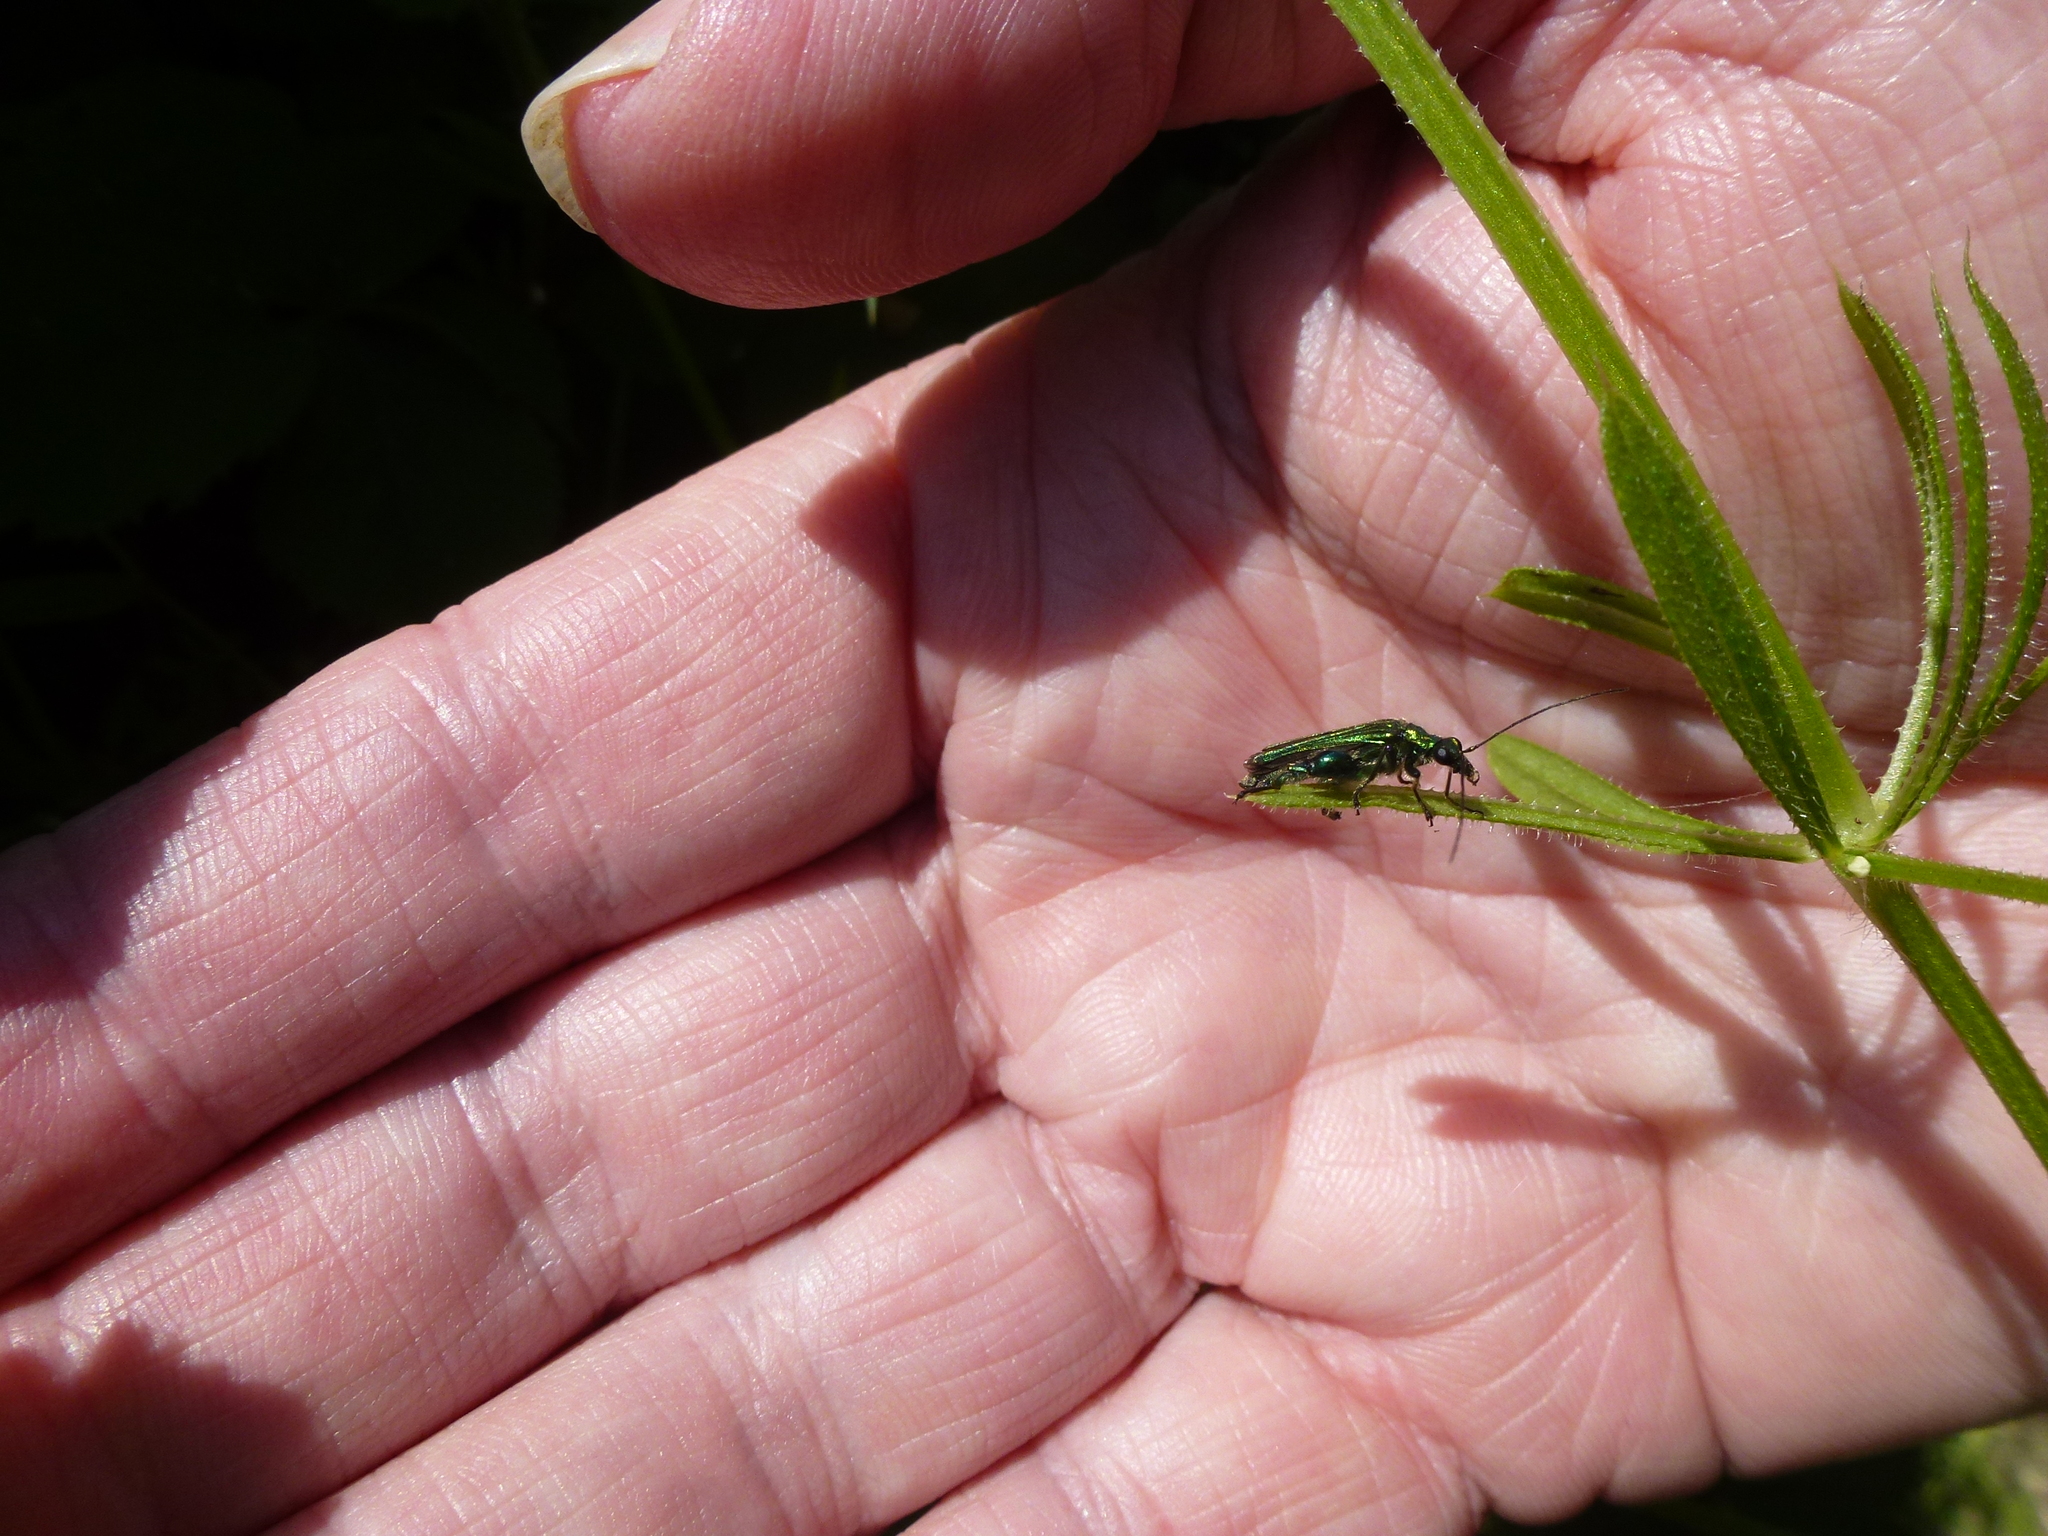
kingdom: Animalia
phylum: Arthropoda
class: Insecta
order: Coleoptera
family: Oedemeridae
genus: Oedemera
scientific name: Oedemera nobilis
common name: Swollen-thighed beetle
